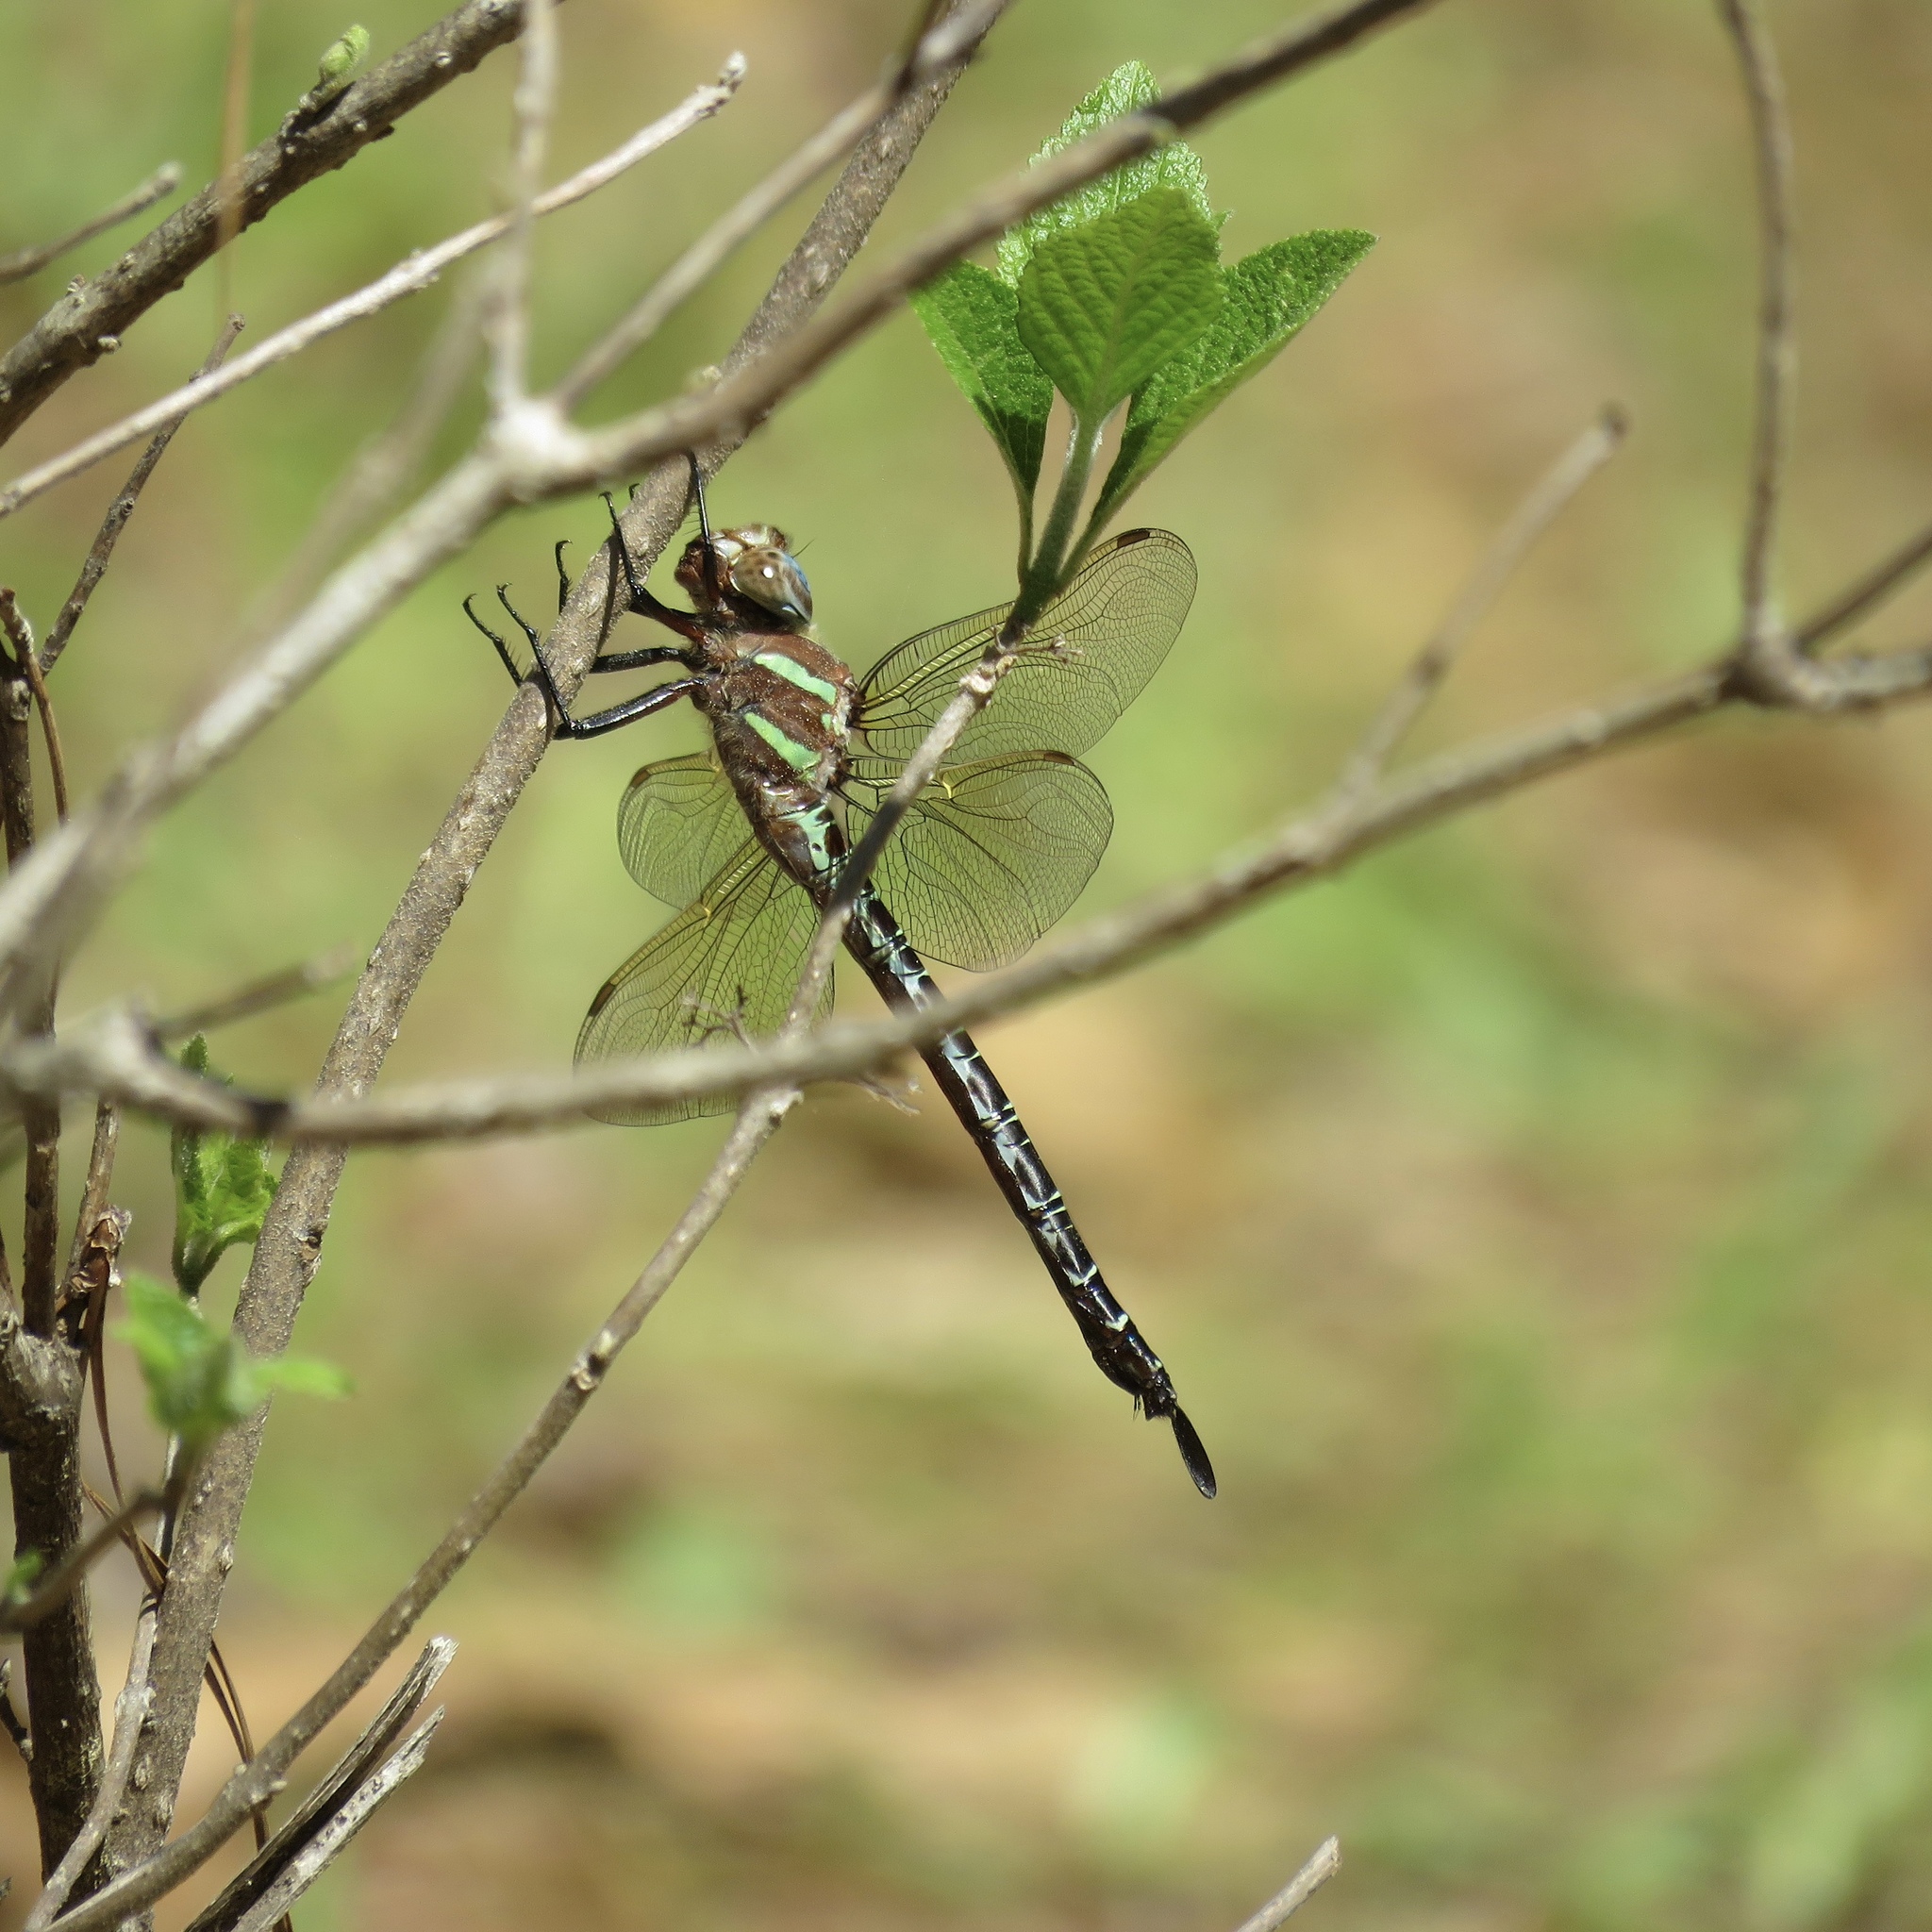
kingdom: Animalia
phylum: Arthropoda
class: Insecta
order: Odonata
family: Aeshnidae
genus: Epiaeschna
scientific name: Epiaeschna heros
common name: Swamp darner
